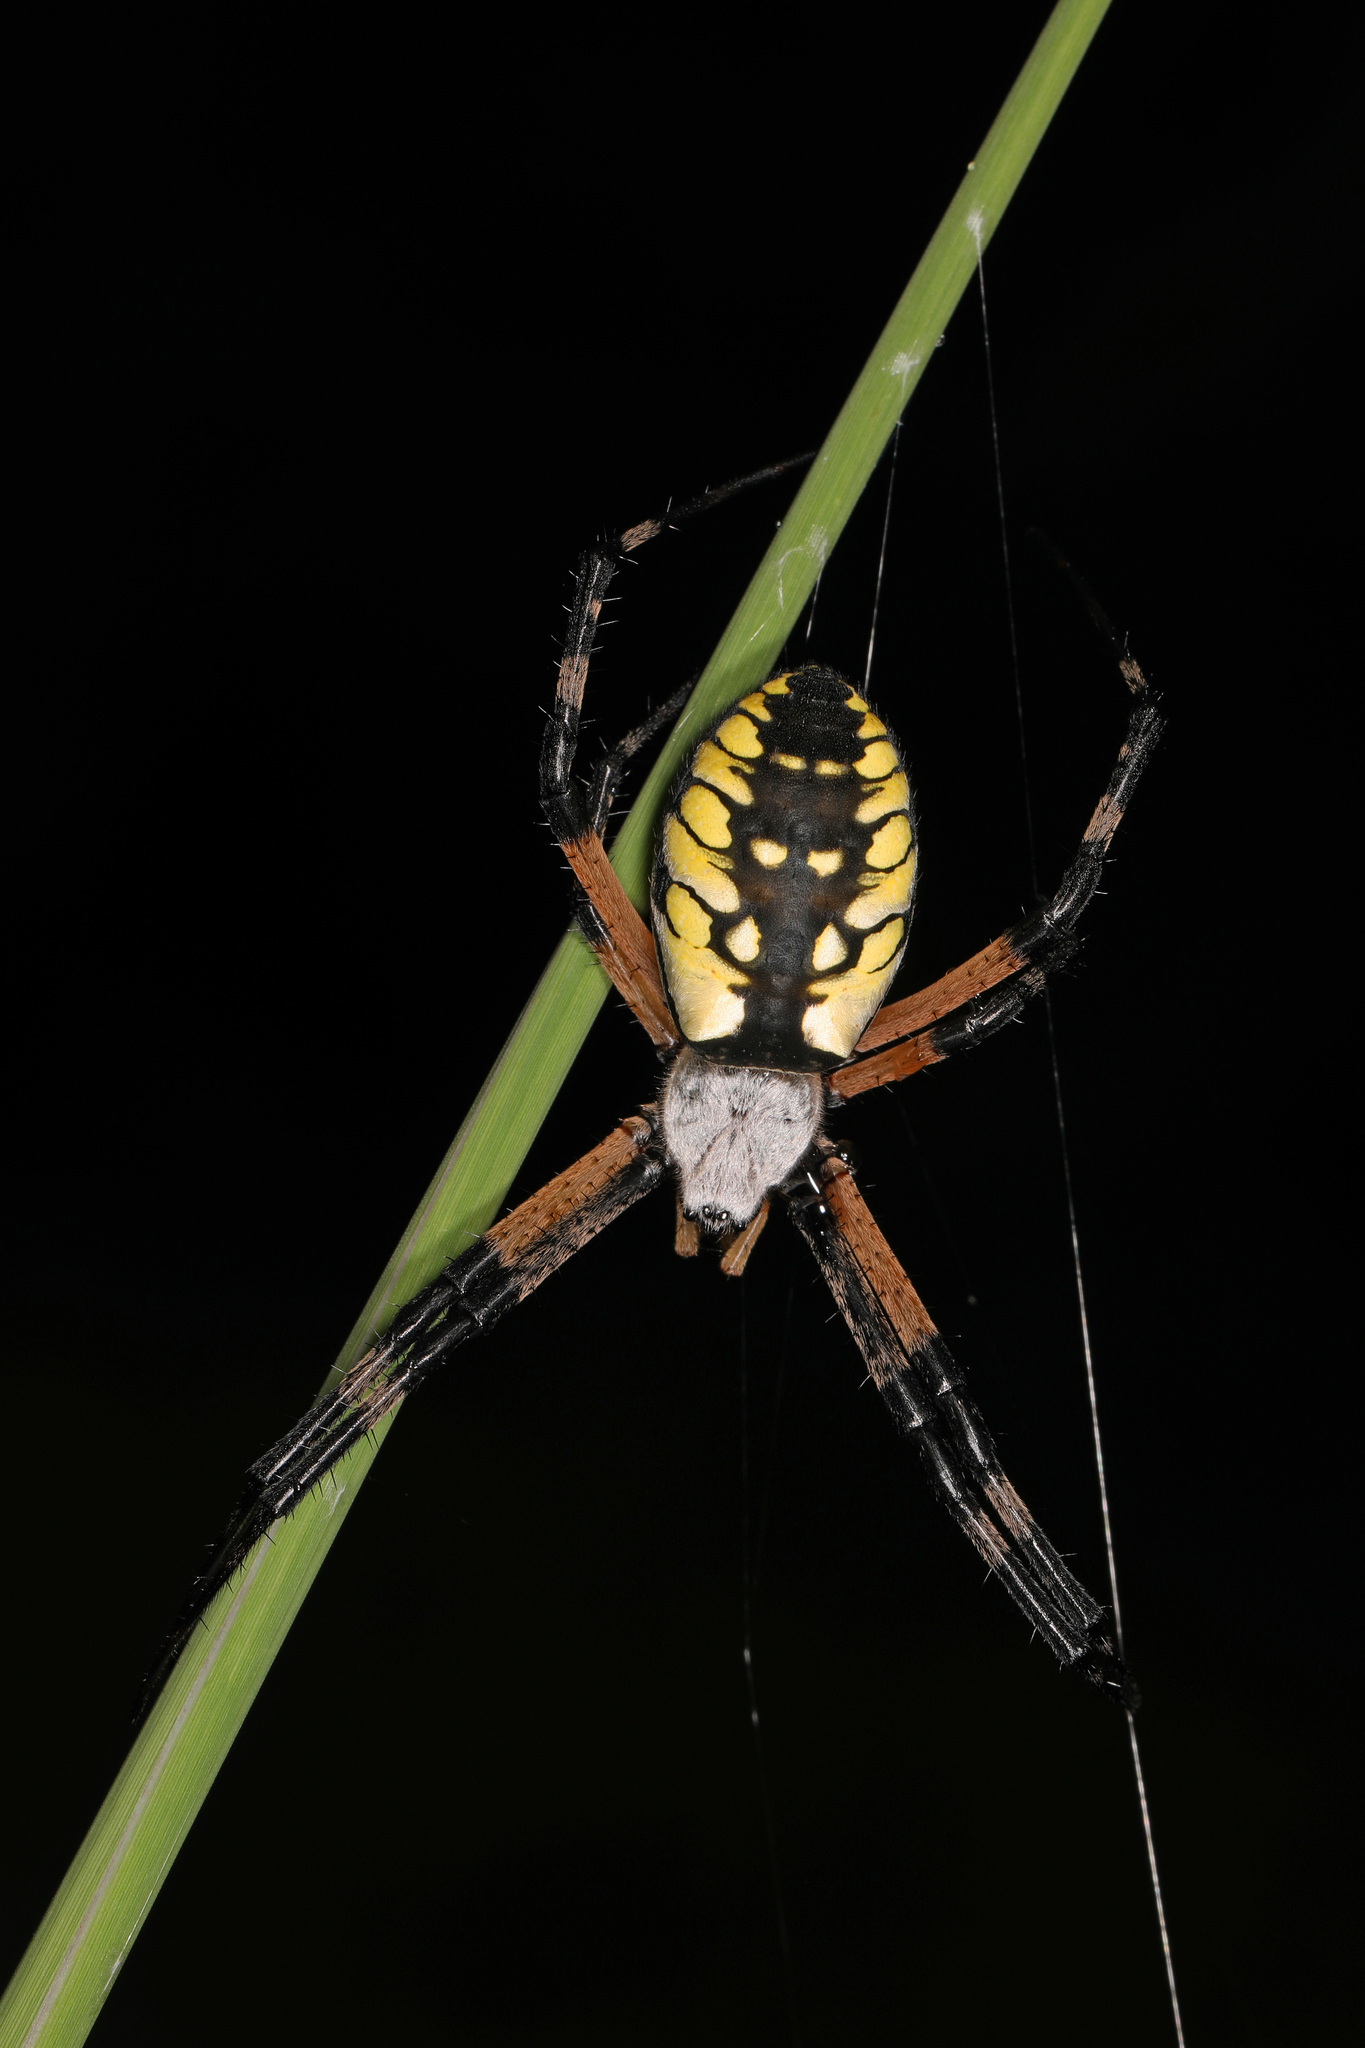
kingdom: Animalia
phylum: Arthropoda
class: Arachnida
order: Araneae
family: Araneidae
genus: Argiope
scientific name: Argiope aurantia
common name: Orb weavers
